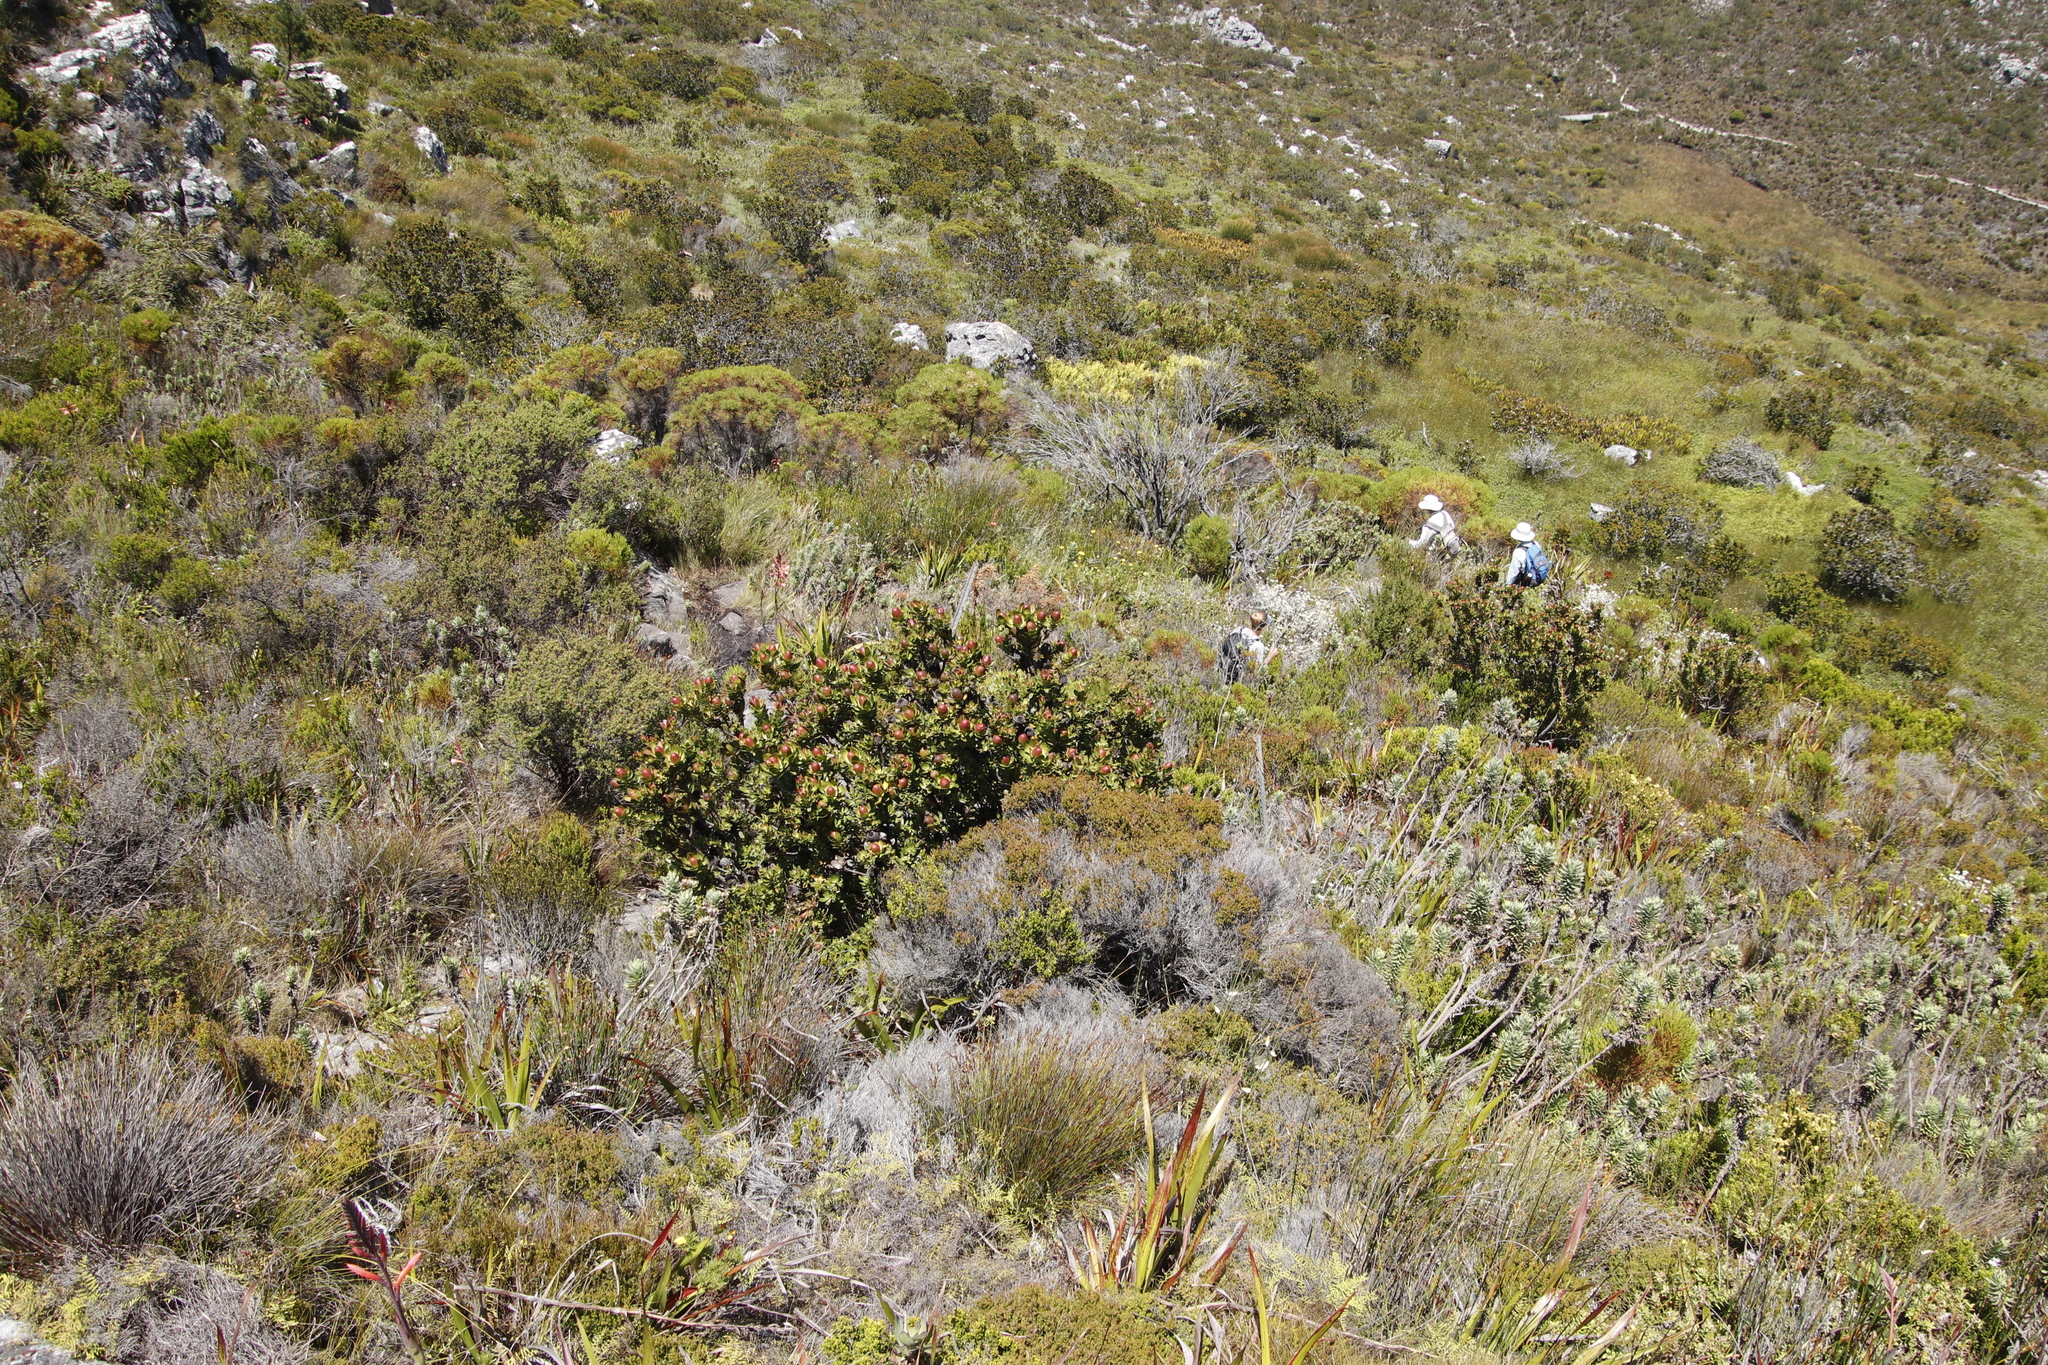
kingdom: Plantae
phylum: Tracheophyta
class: Magnoliopsida
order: Proteales
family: Proteaceae
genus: Leucadendron
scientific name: Leucadendron strobilinum
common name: Mountain rose
